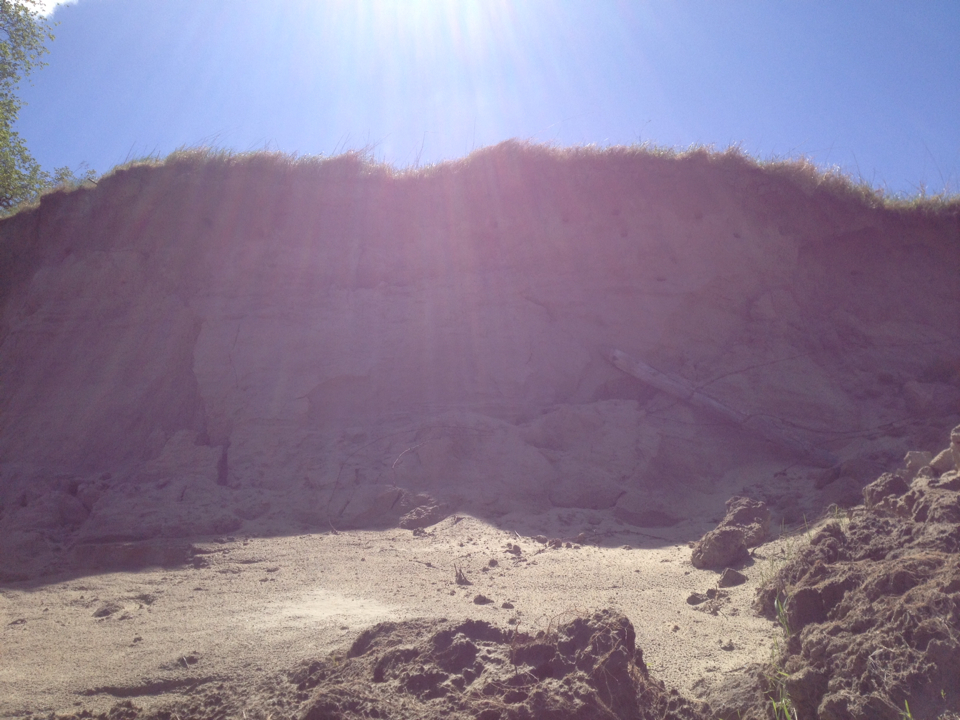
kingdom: Animalia
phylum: Chordata
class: Aves
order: Passeriformes
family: Hirundinidae
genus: Riparia
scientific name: Riparia riparia
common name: Sand martin
